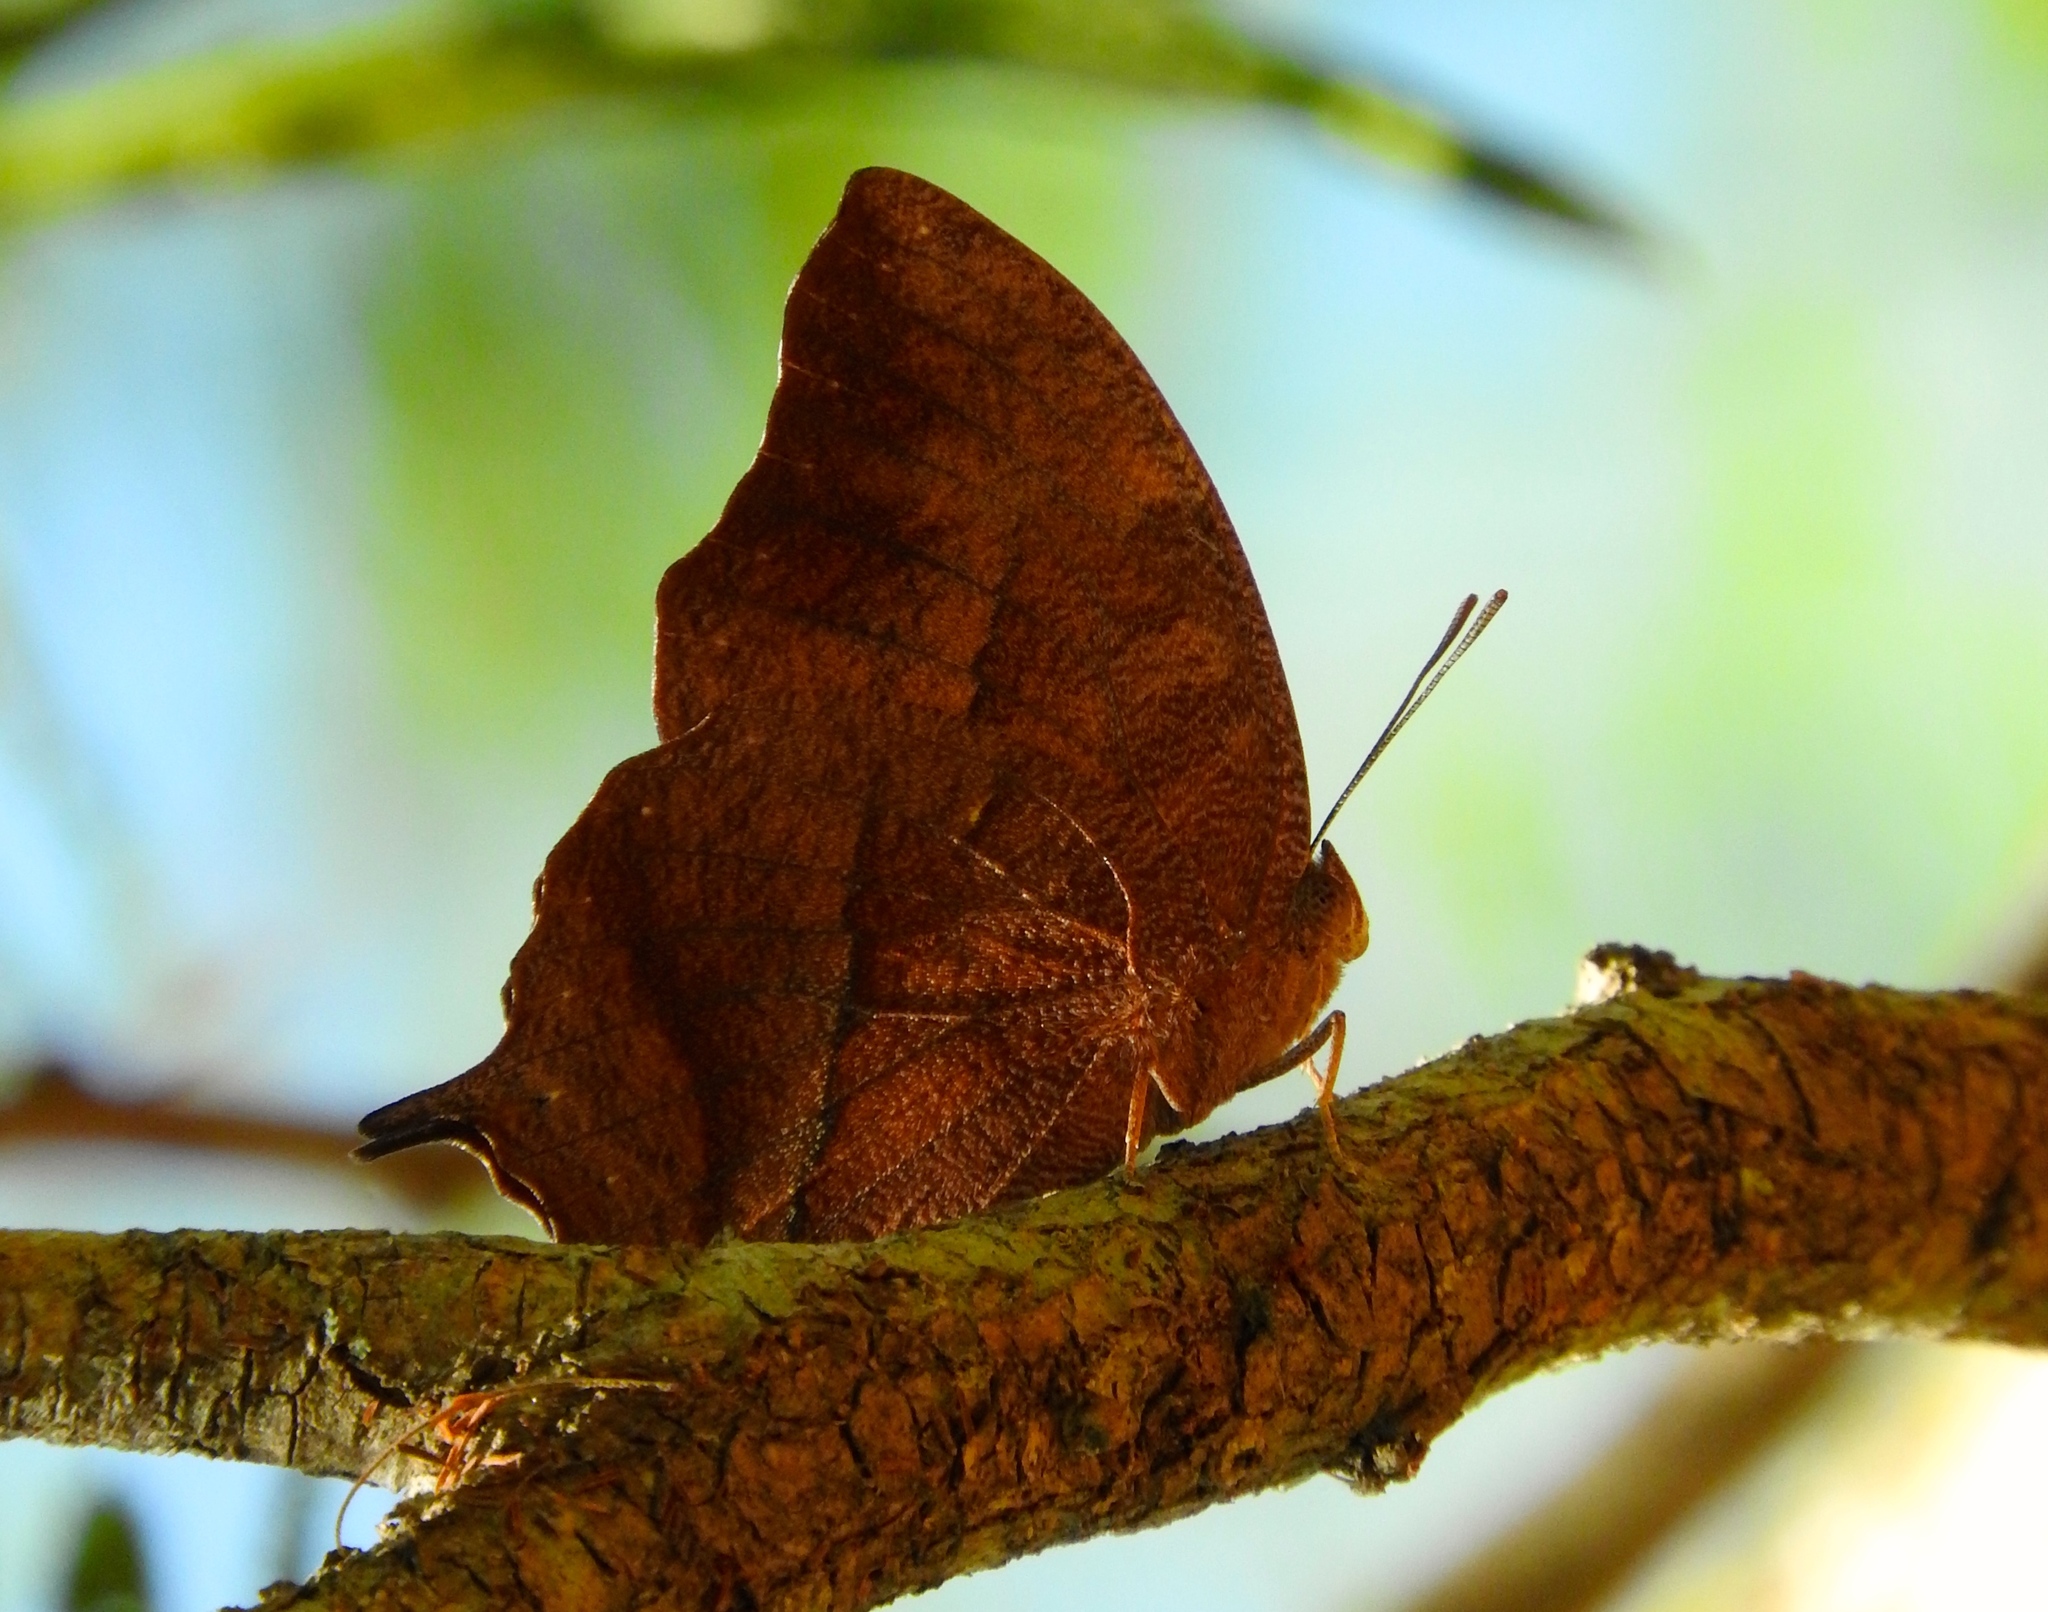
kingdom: Animalia
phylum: Arthropoda
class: Insecta
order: Lepidoptera
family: Nymphalidae
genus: Fountainea
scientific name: Fountainea
